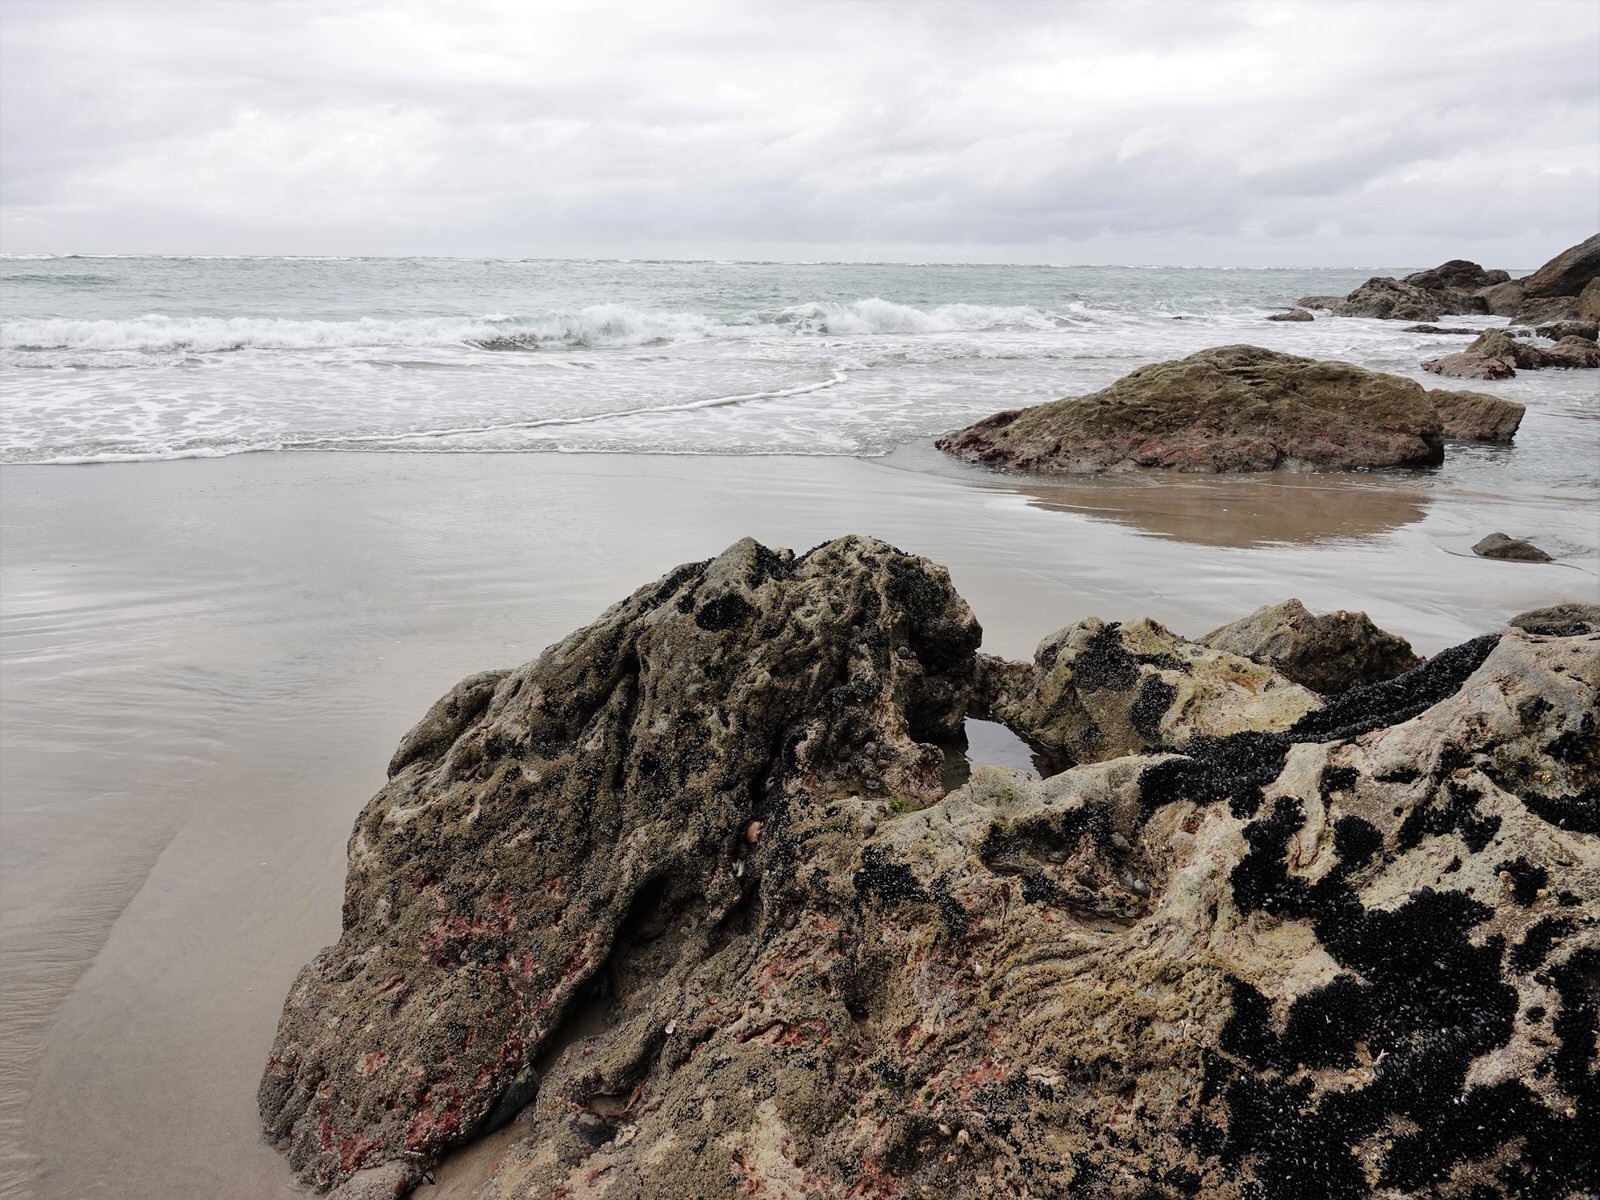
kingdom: Animalia
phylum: Arthropoda
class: Malacostraca
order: Decapoda
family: Grapsidae
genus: Leptograpsus
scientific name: Leptograpsus variegatus
